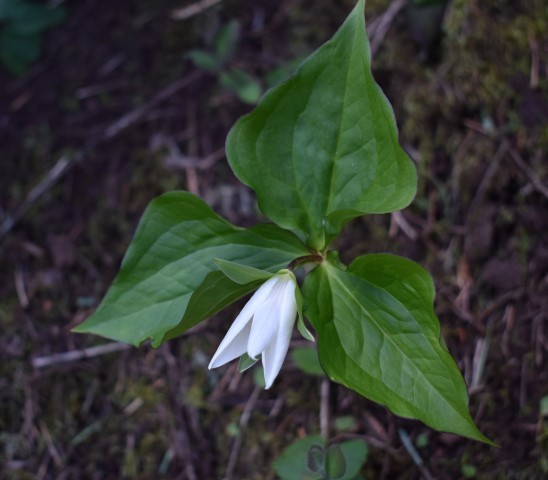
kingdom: Plantae
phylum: Tracheophyta
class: Liliopsida
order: Liliales
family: Melanthiaceae
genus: Trillium
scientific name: Trillium ovatum
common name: Pacific trillium
